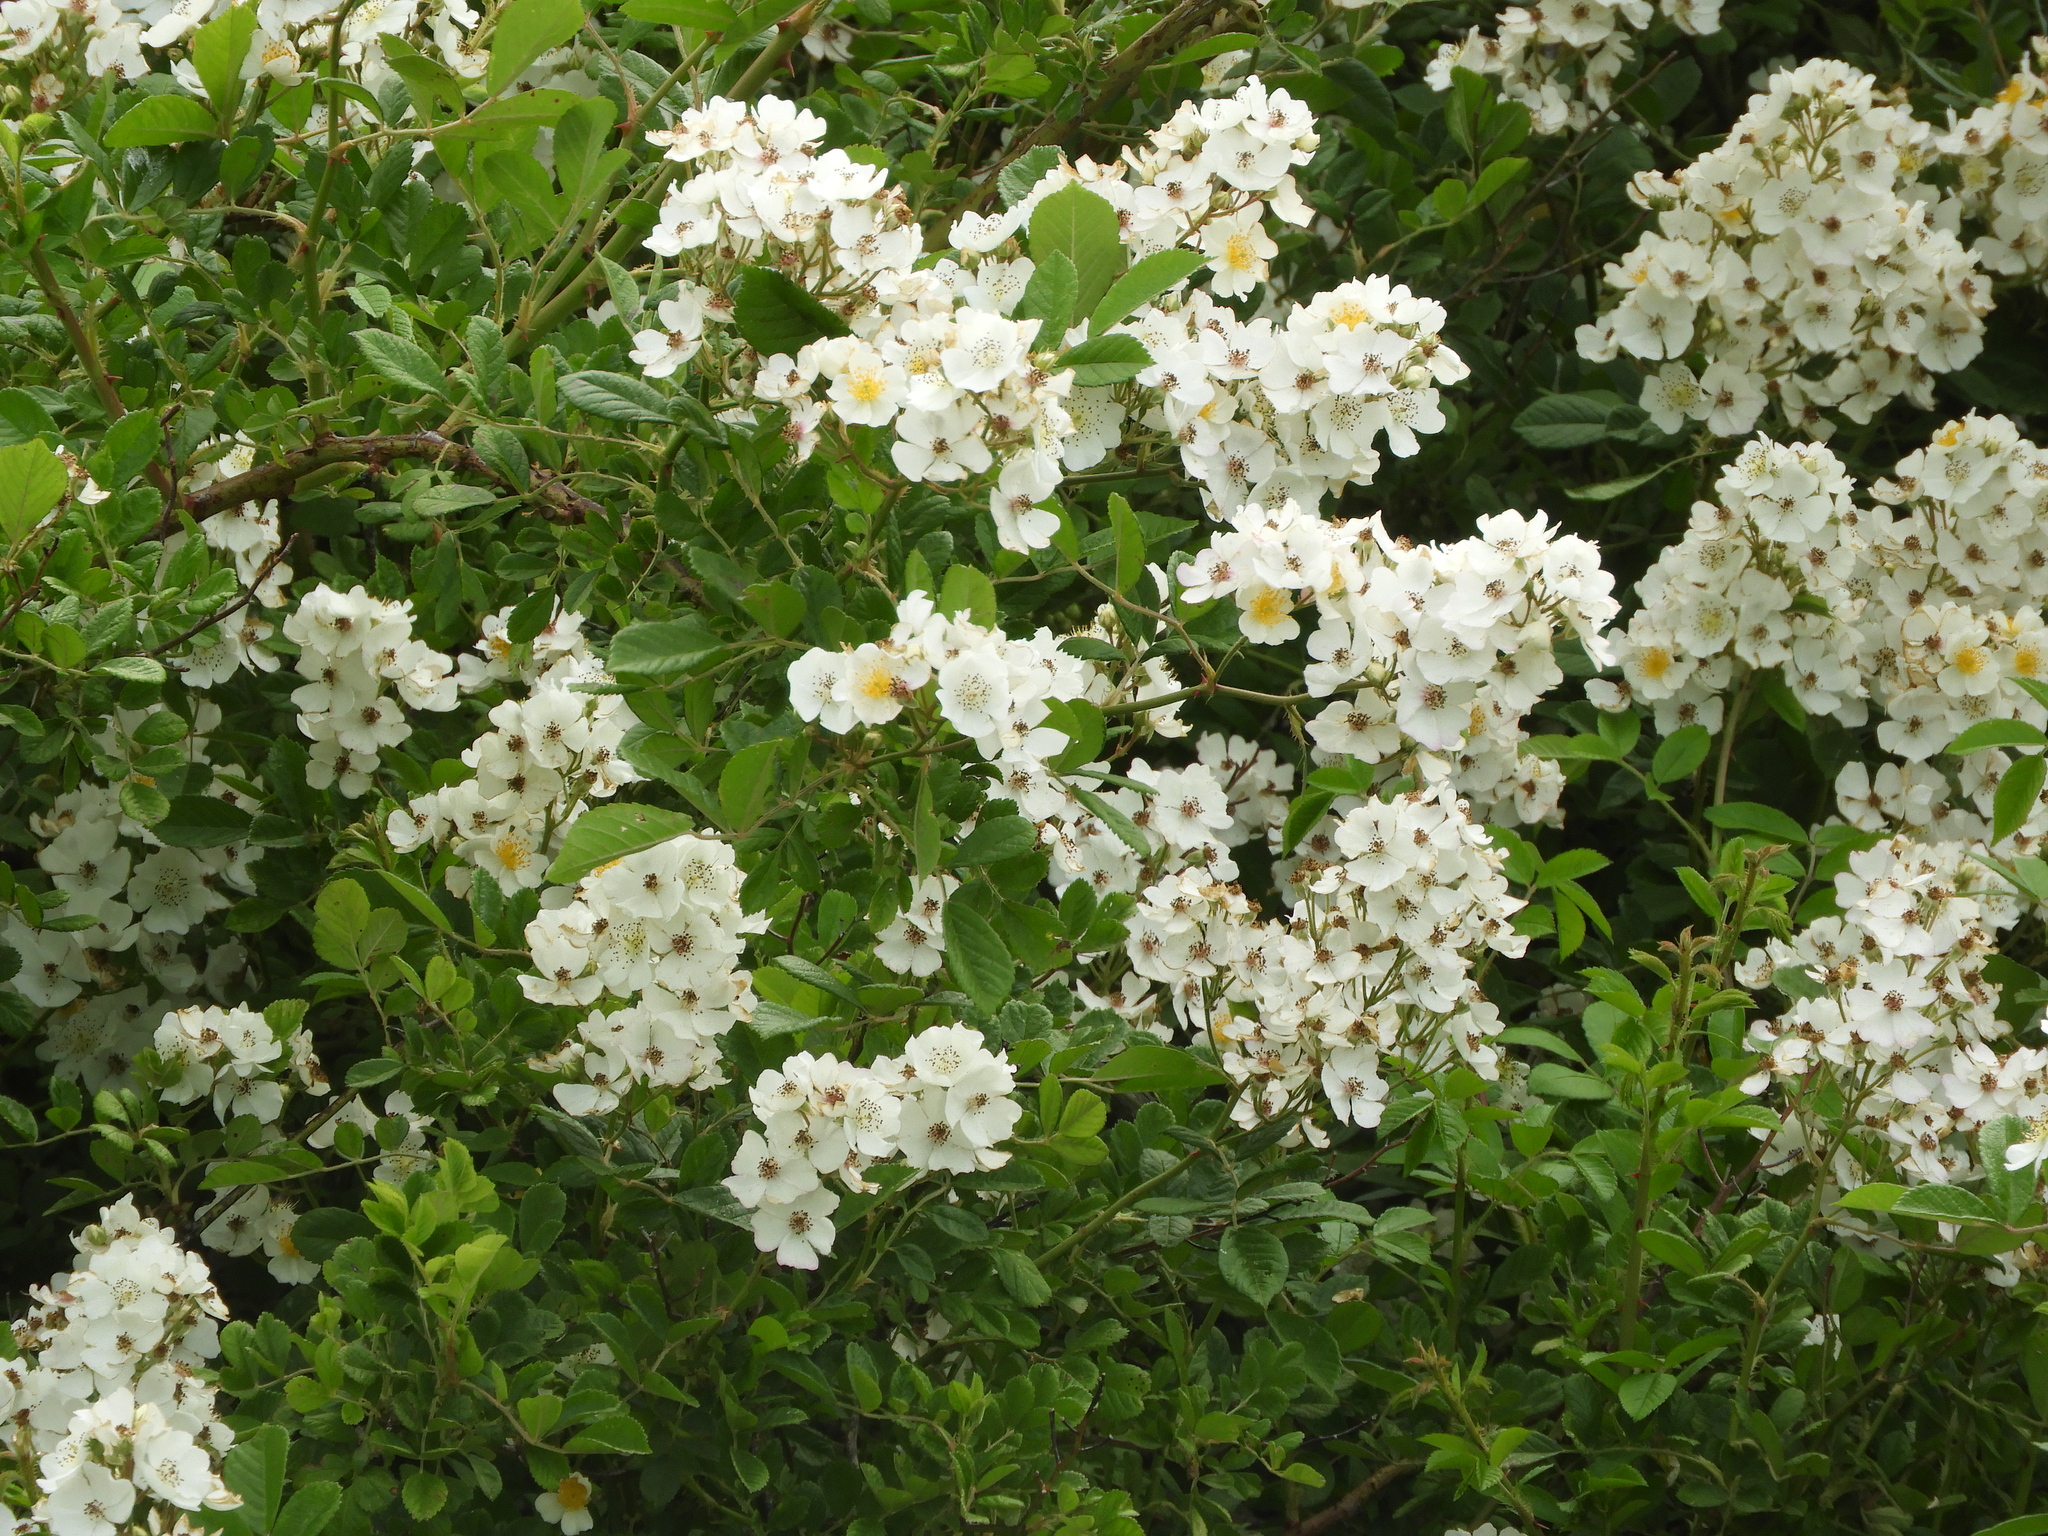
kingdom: Plantae
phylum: Tracheophyta
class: Magnoliopsida
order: Rosales
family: Rosaceae
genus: Rosa
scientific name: Rosa multiflora
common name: Multiflora rose
